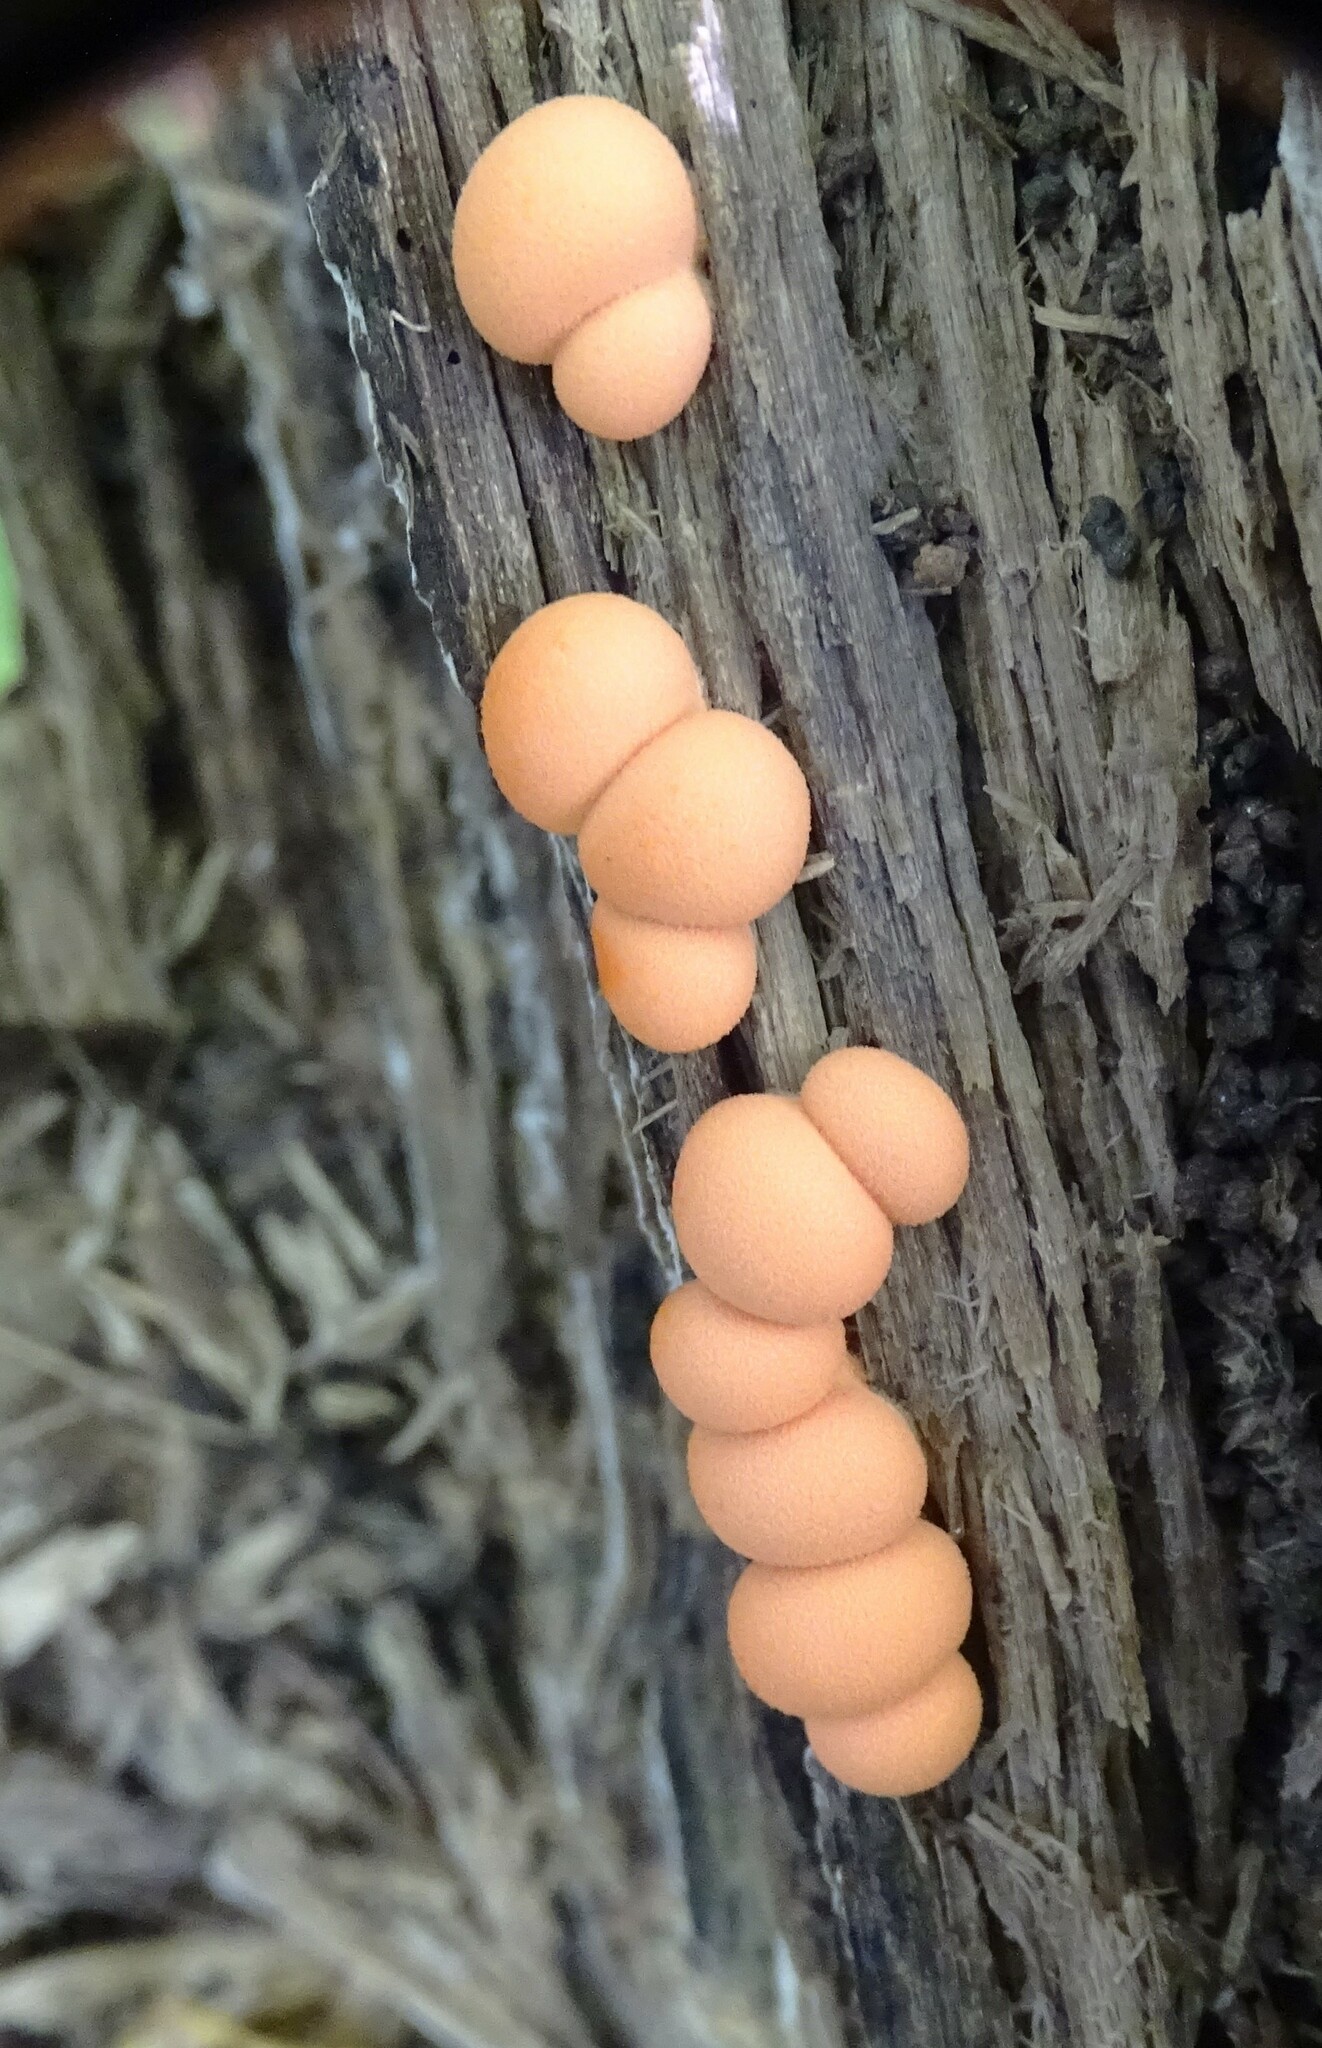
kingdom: Protozoa
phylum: Mycetozoa
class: Myxomycetes
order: Cribrariales
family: Tubiferaceae
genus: Lycogala
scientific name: Lycogala epidendrum
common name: Wolf's milk
